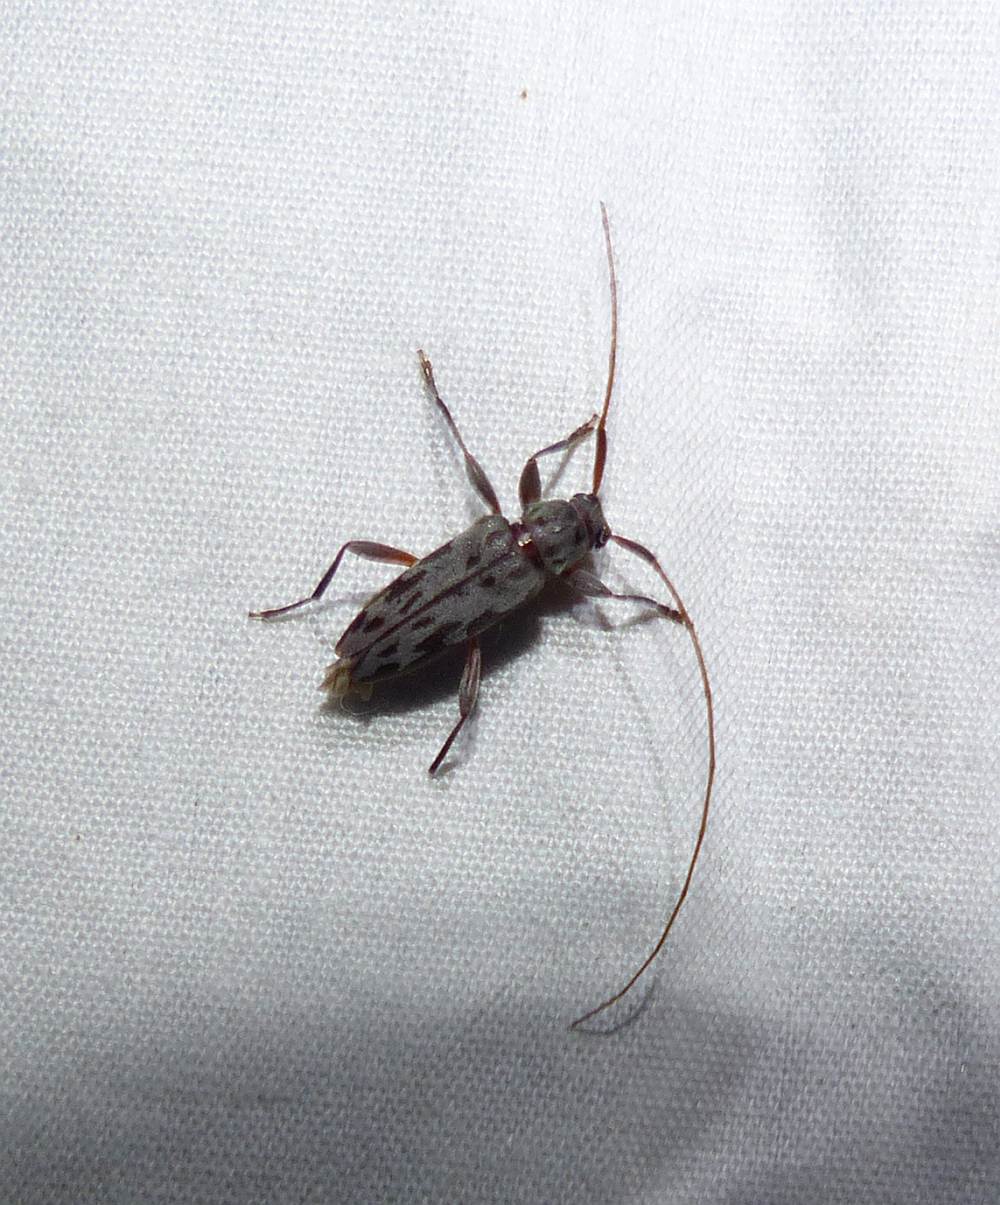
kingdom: Animalia
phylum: Arthropoda
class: Insecta
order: Coleoptera
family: Cerambycidae
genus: Lepturges
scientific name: Lepturges pictus
